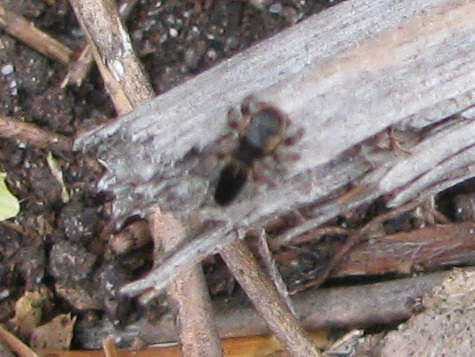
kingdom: Animalia
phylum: Arthropoda
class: Arachnida
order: Araneae
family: Salticidae
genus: Maratus
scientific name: Maratus proszynskii
